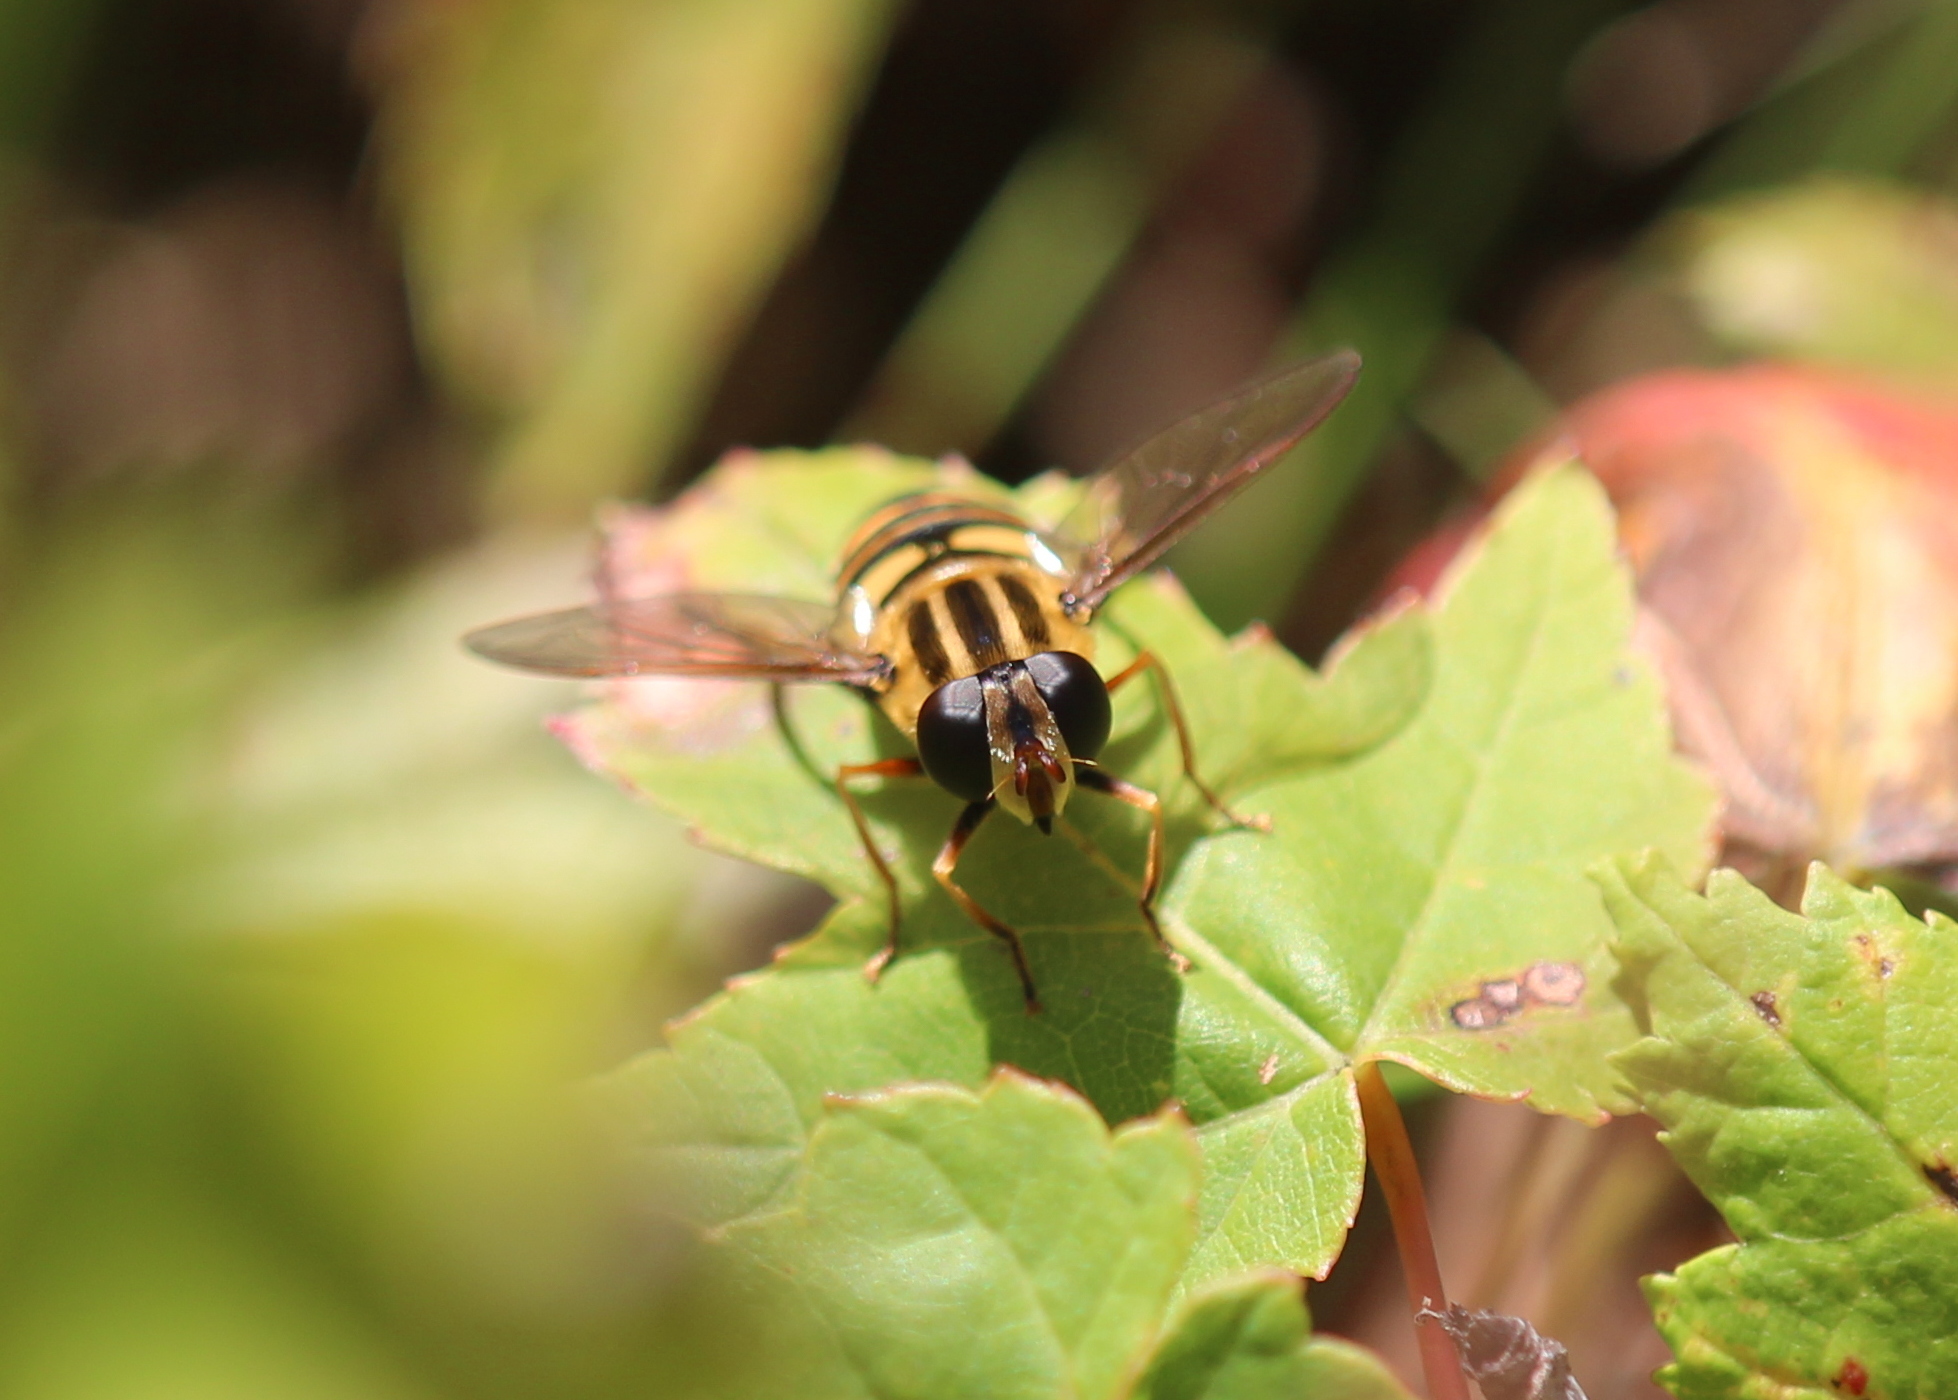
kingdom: Animalia
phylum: Arthropoda
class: Insecta
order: Diptera
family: Syrphidae
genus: Helophilus
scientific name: Helophilus fasciatus
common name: Narrow-headed marsh fly
